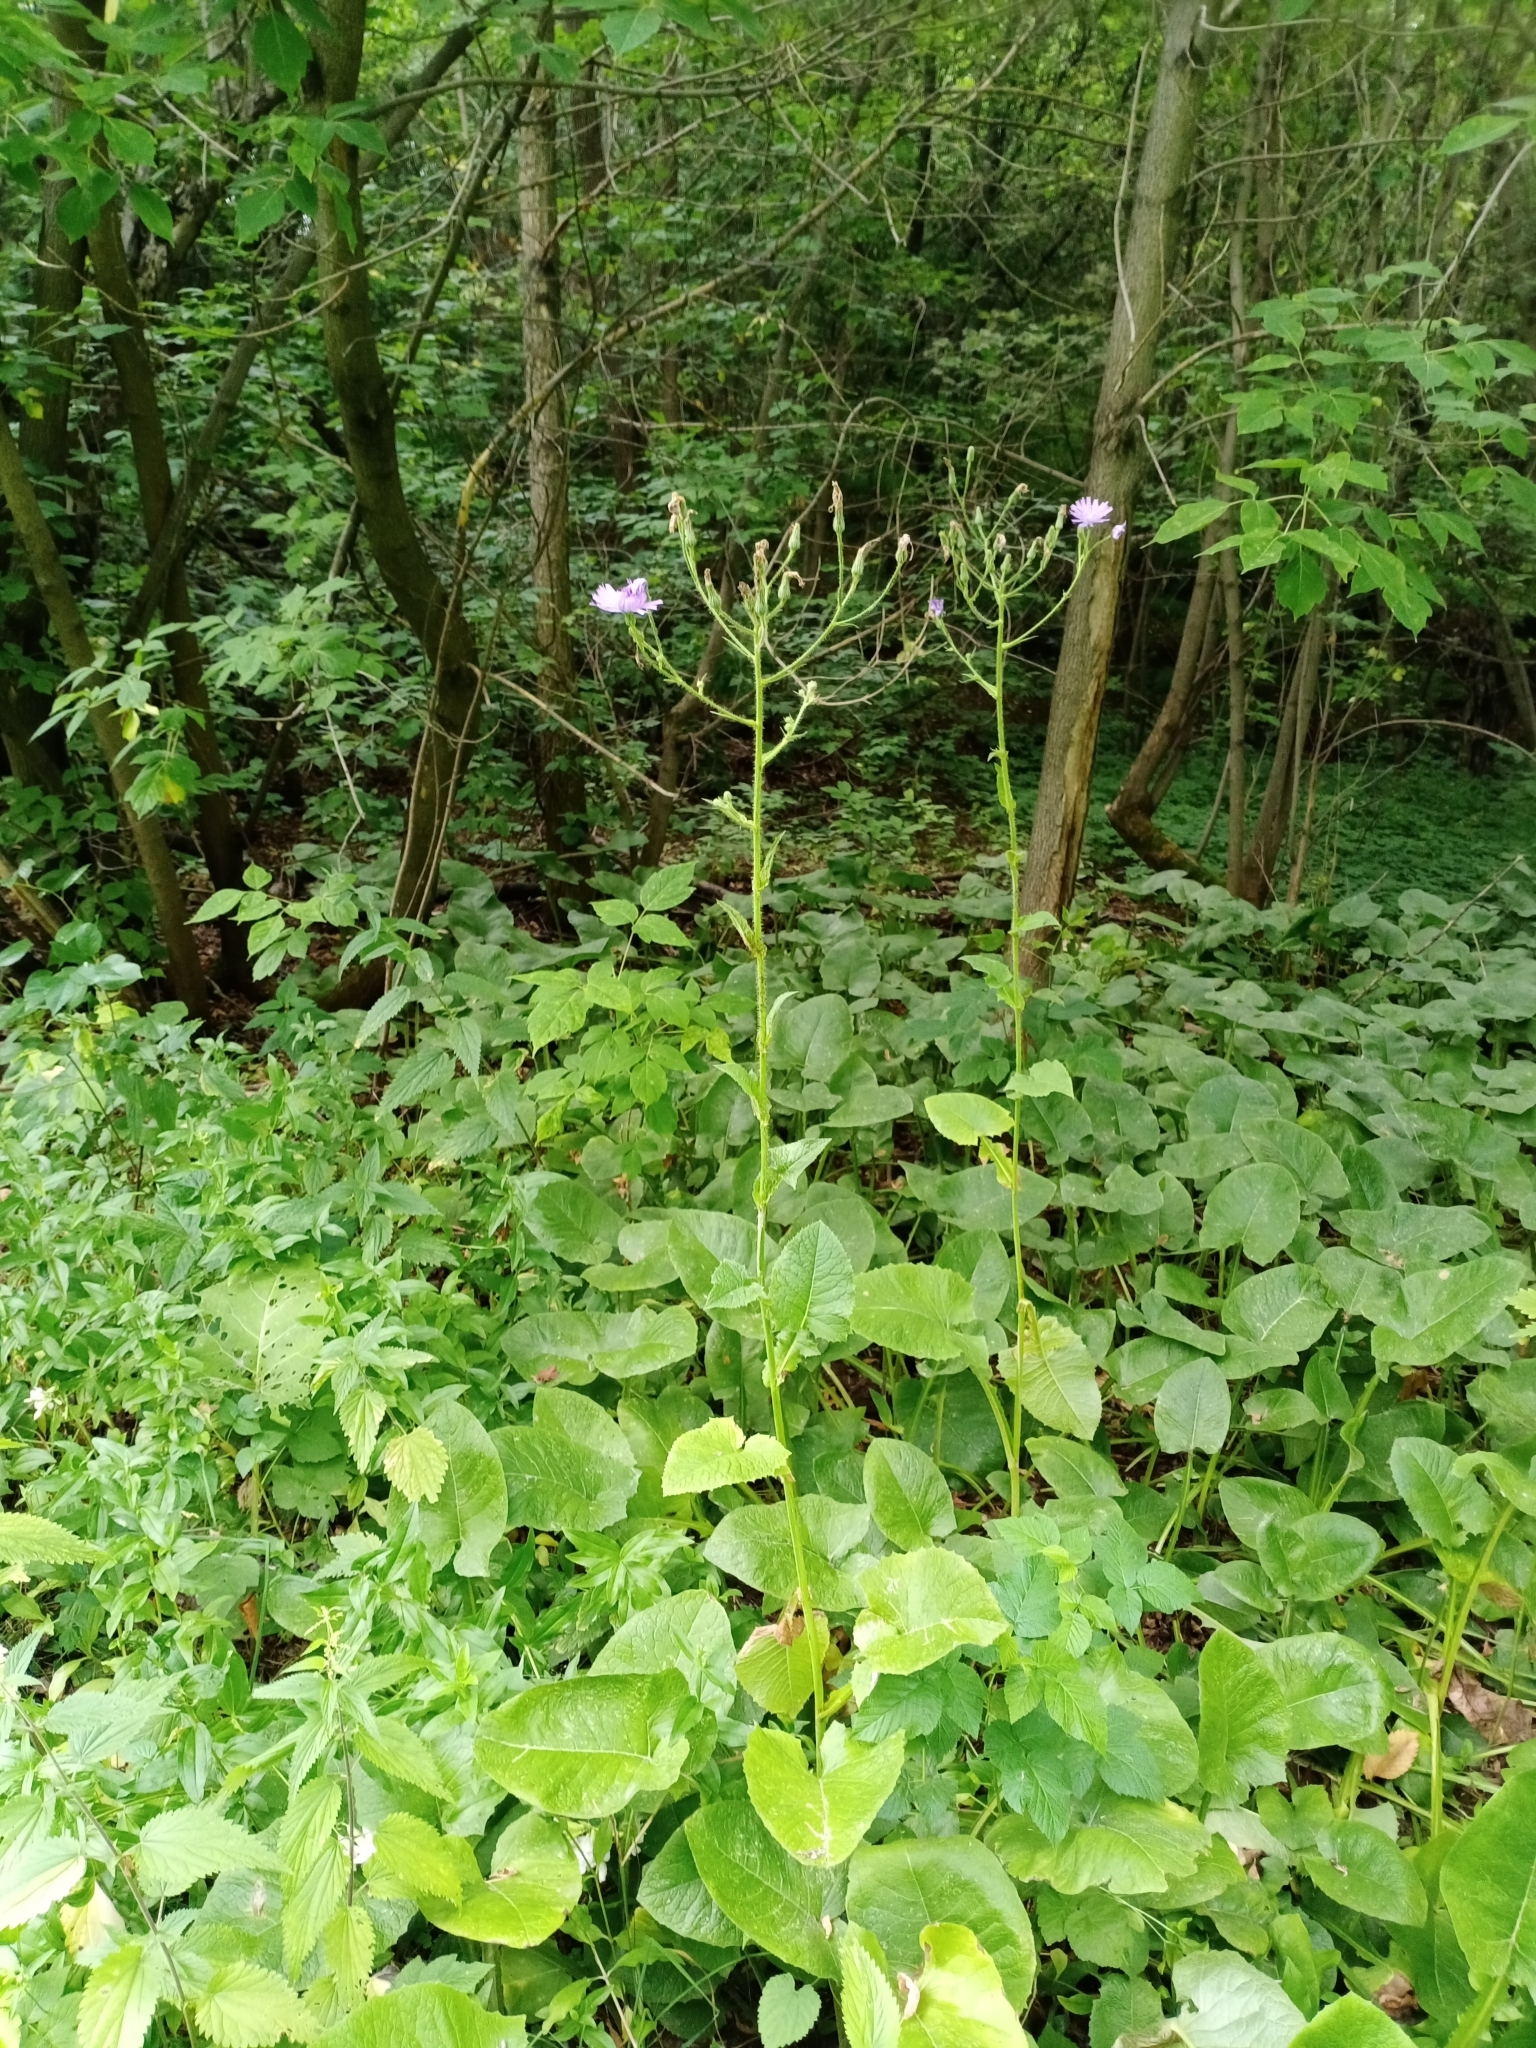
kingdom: Plantae
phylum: Tracheophyta
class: Magnoliopsida
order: Asterales
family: Asteraceae
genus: Lactuca
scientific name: Lactuca macrophylla
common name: Common blue-sow-thistle
